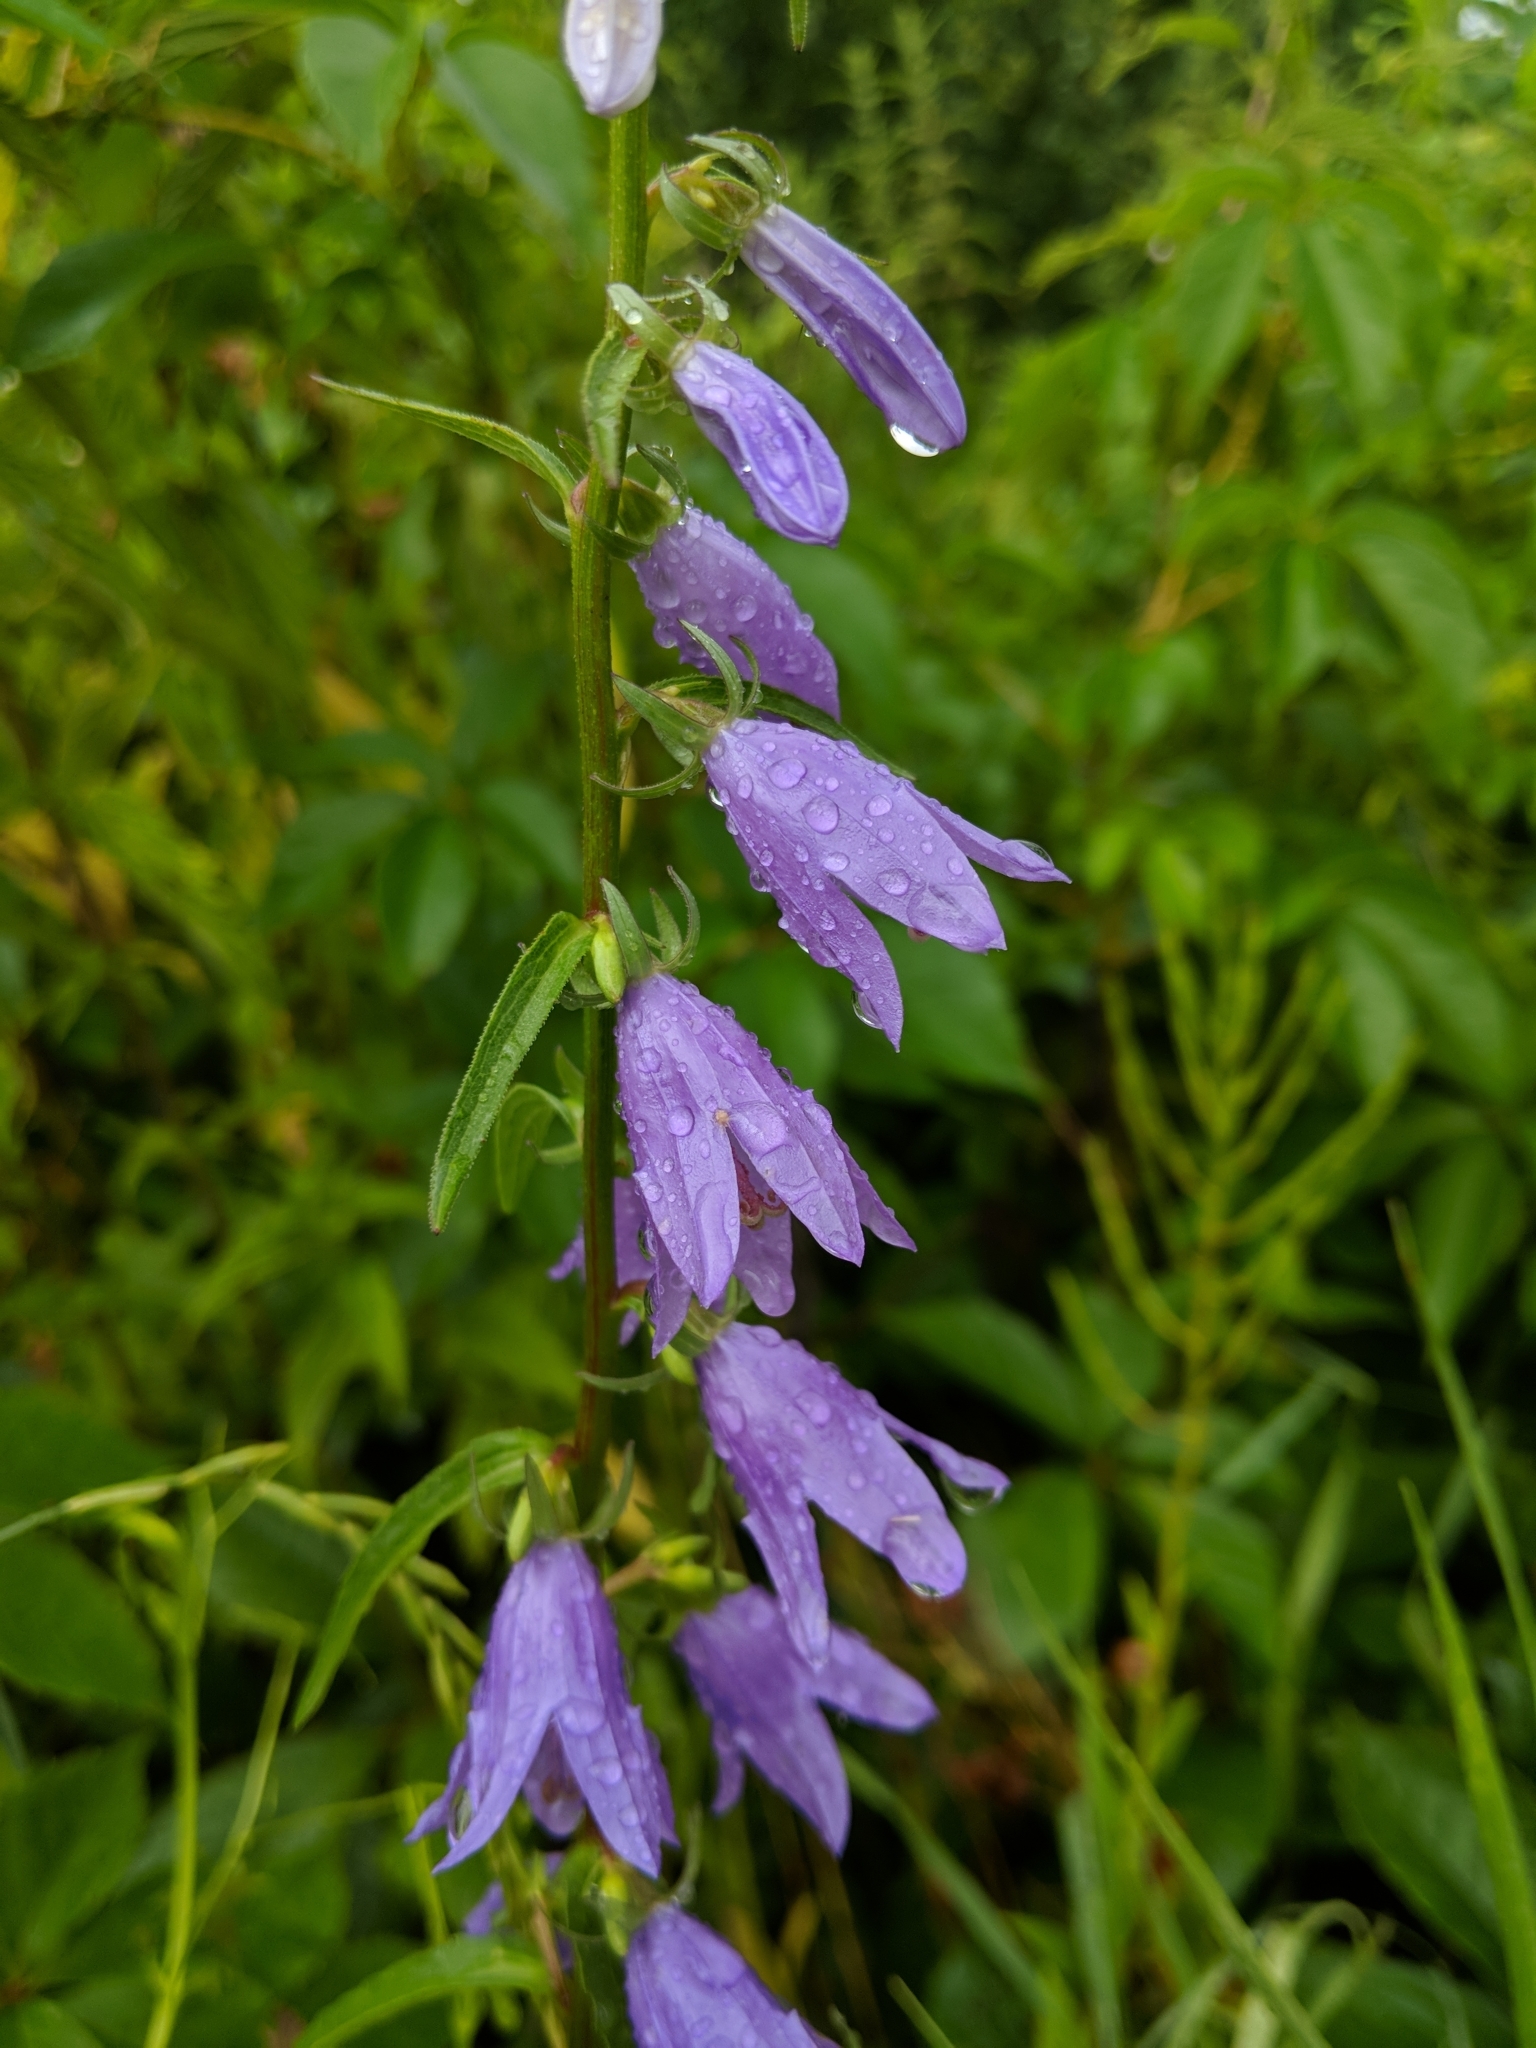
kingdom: Plantae
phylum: Tracheophyta
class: Magnoliopsida
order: Asterales
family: Campanulaceae
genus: Campanula
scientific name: Campanula rapunculoides
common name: Creeping bellflower
